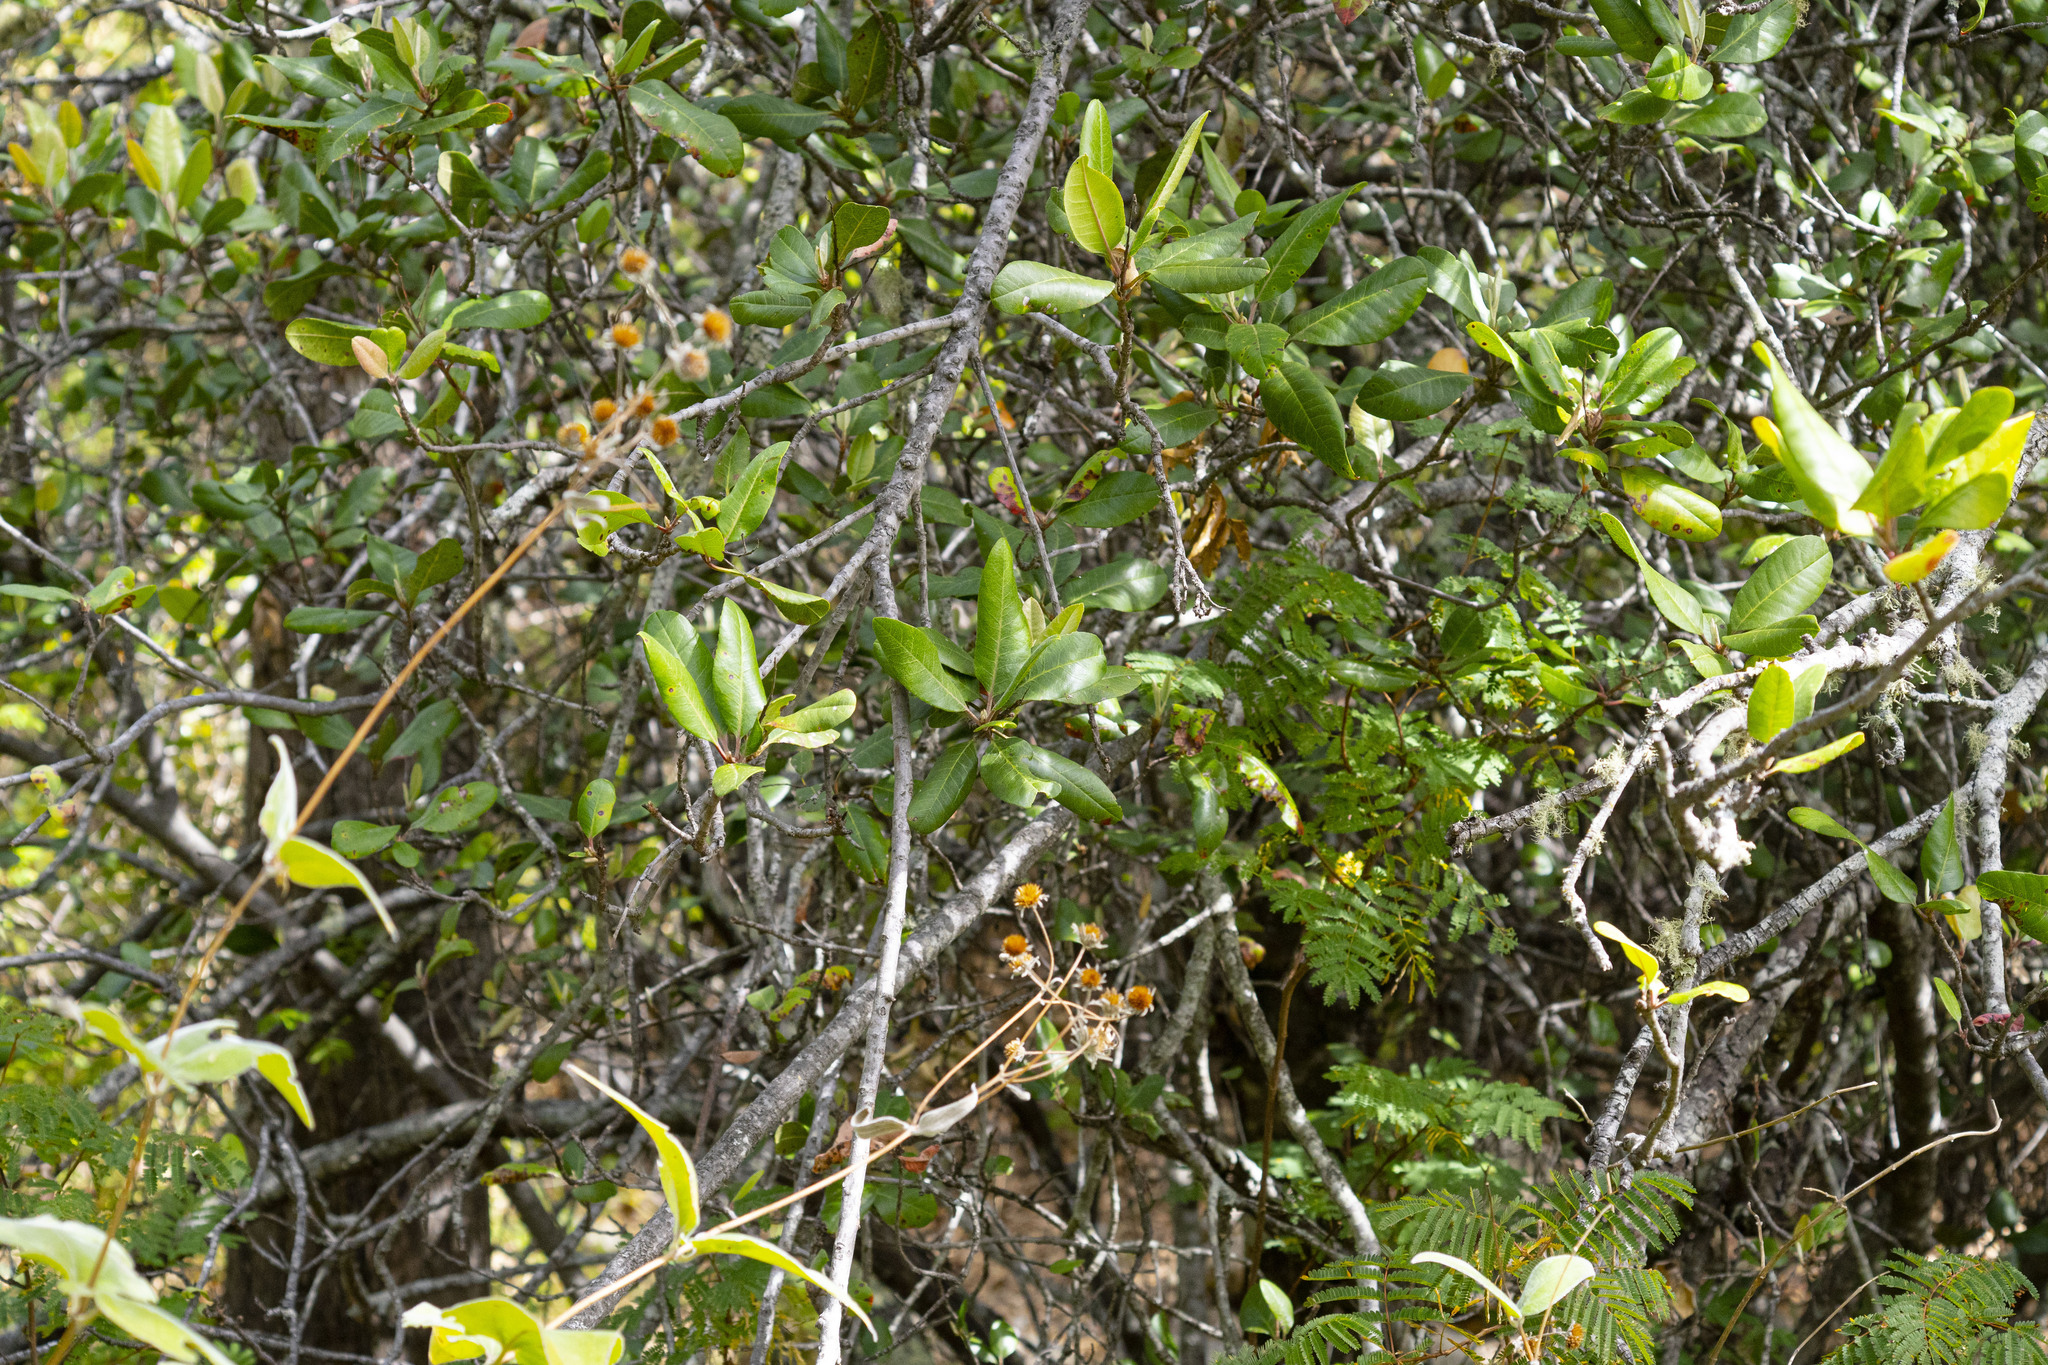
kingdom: Plantae
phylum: Tracheophyta
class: Magnoliopsida
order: Rosales
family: Rosaceae
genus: Heteromeles
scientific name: Heteromeles arbutifolia
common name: California-holly
